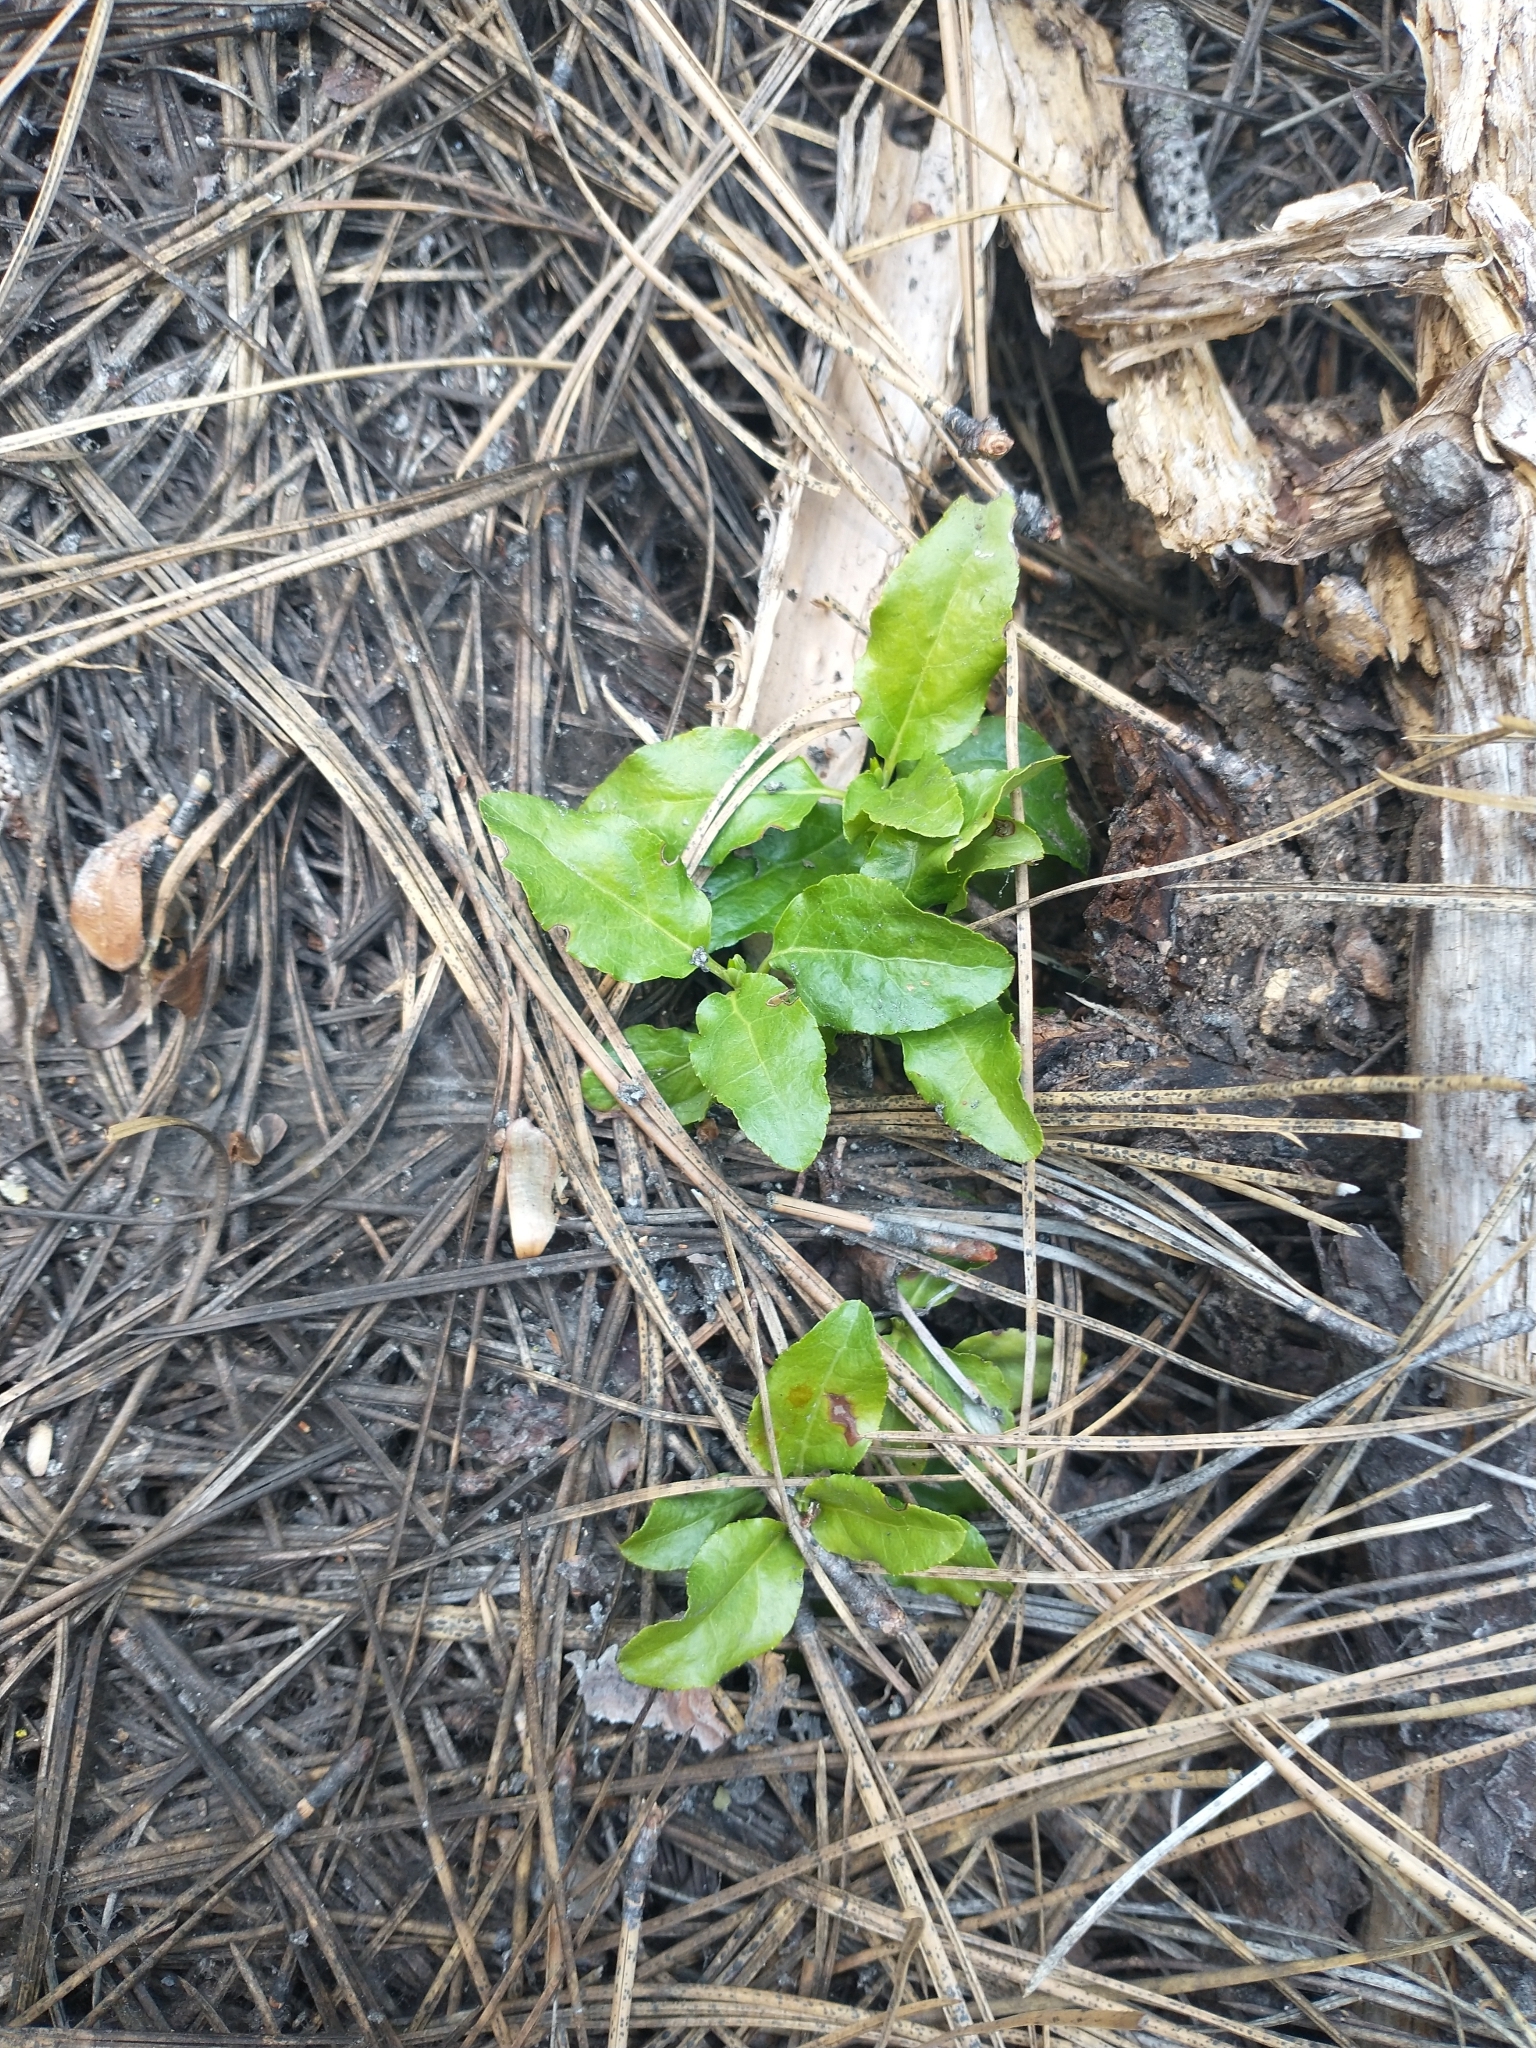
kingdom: Plantae
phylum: Tracheophyta
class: Magnoliopsida
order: Ericales
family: Ericaceae
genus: Orthilia
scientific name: Orthilia secunda
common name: One-sided orthilia
